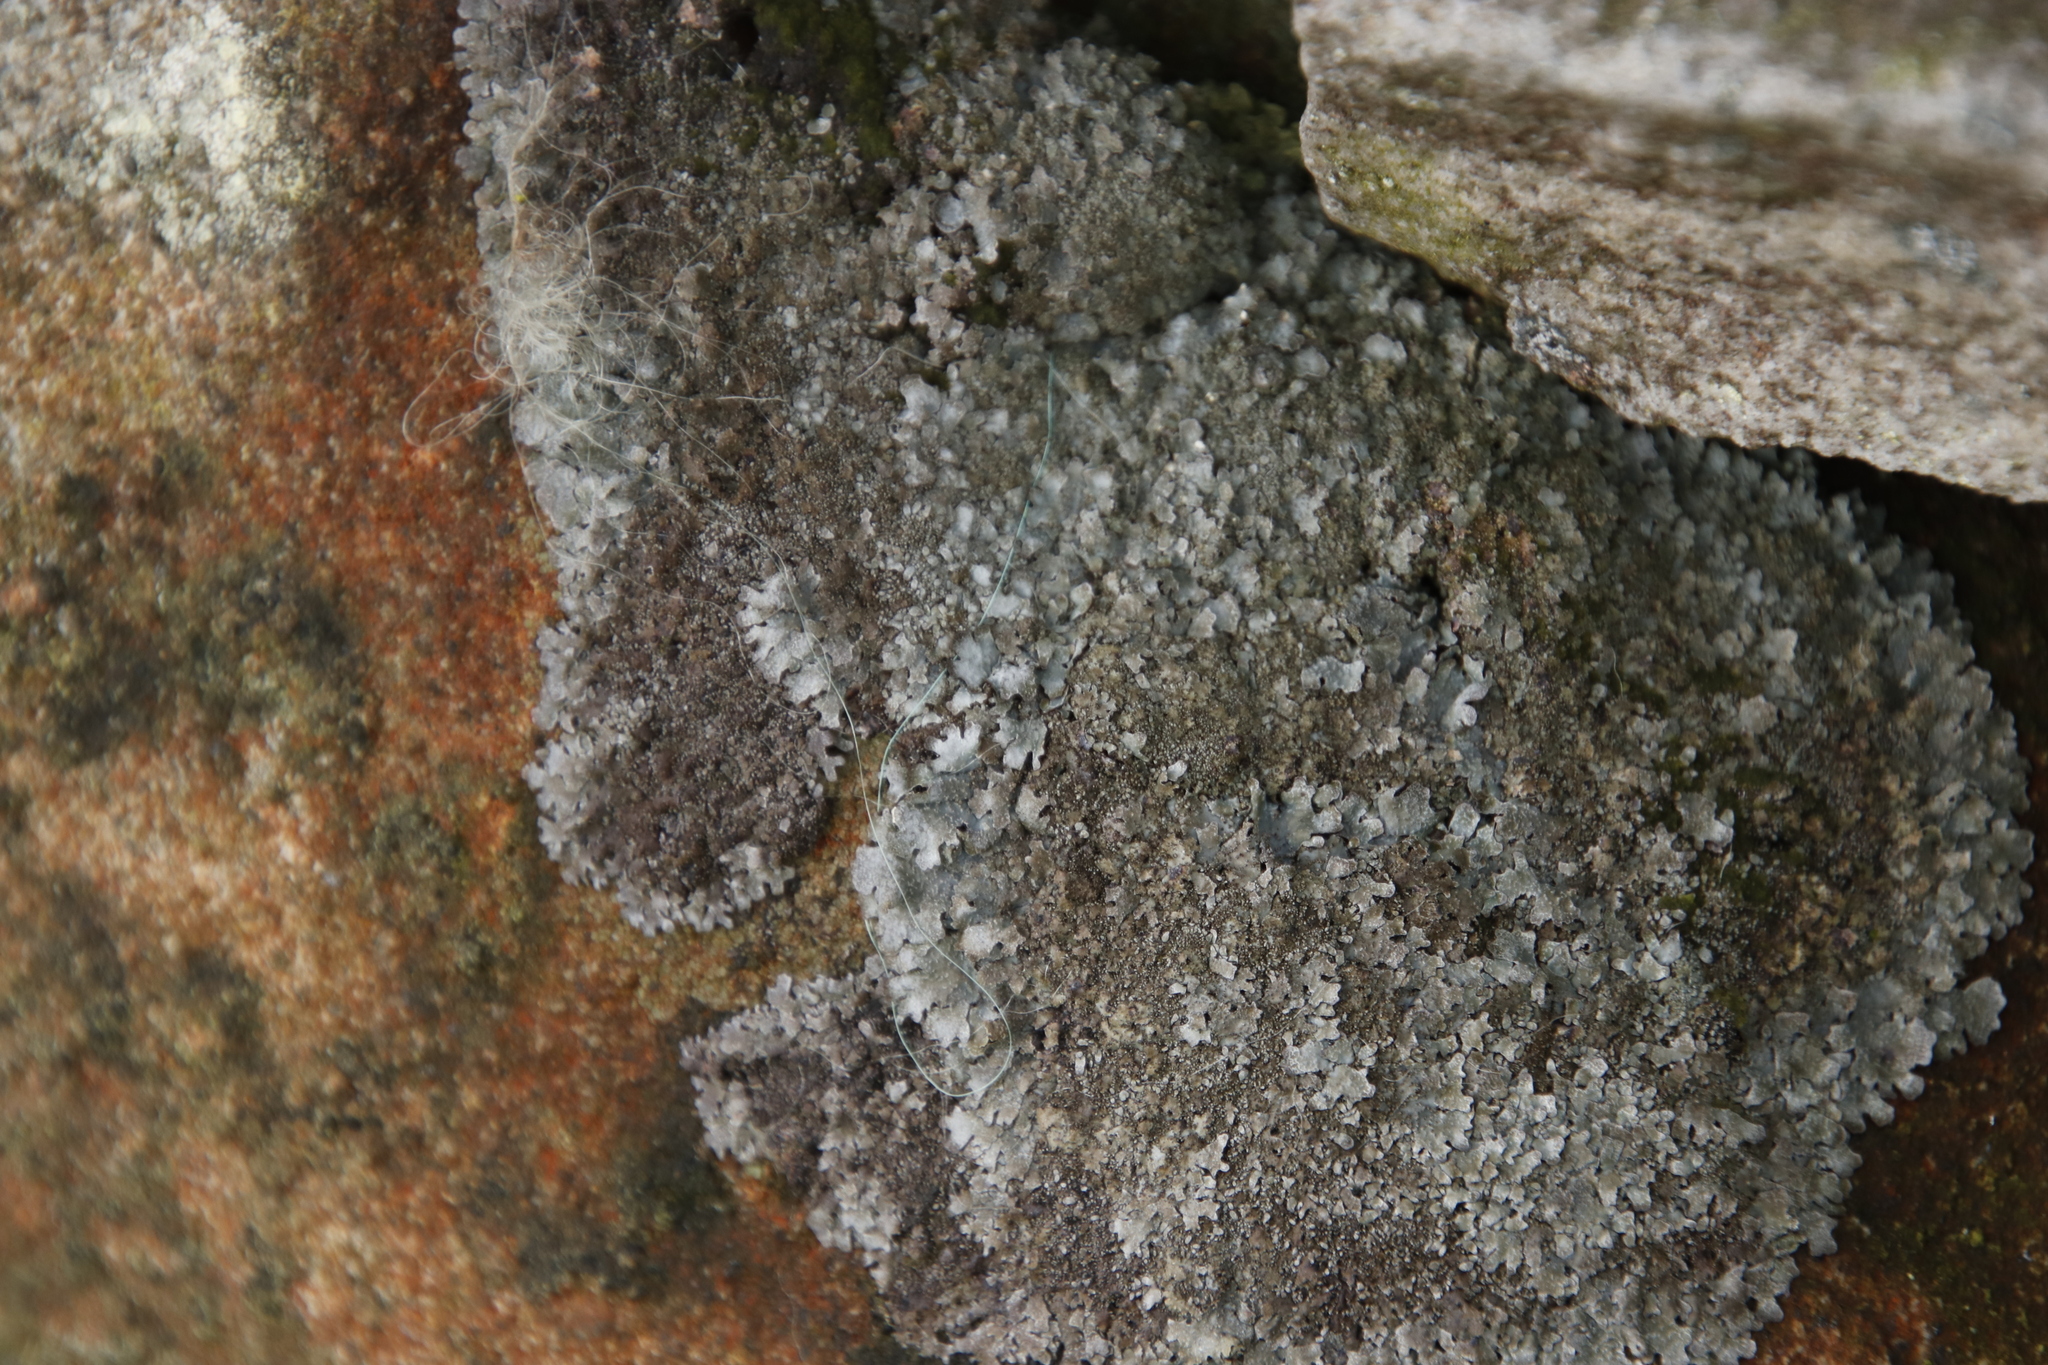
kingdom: Fungi
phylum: Ascomycota
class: Lecanoromycetes
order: Lecanorales
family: Parmeliaceae
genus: Parmelia
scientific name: Parmelia saxatilis
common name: Salted shield lichen
